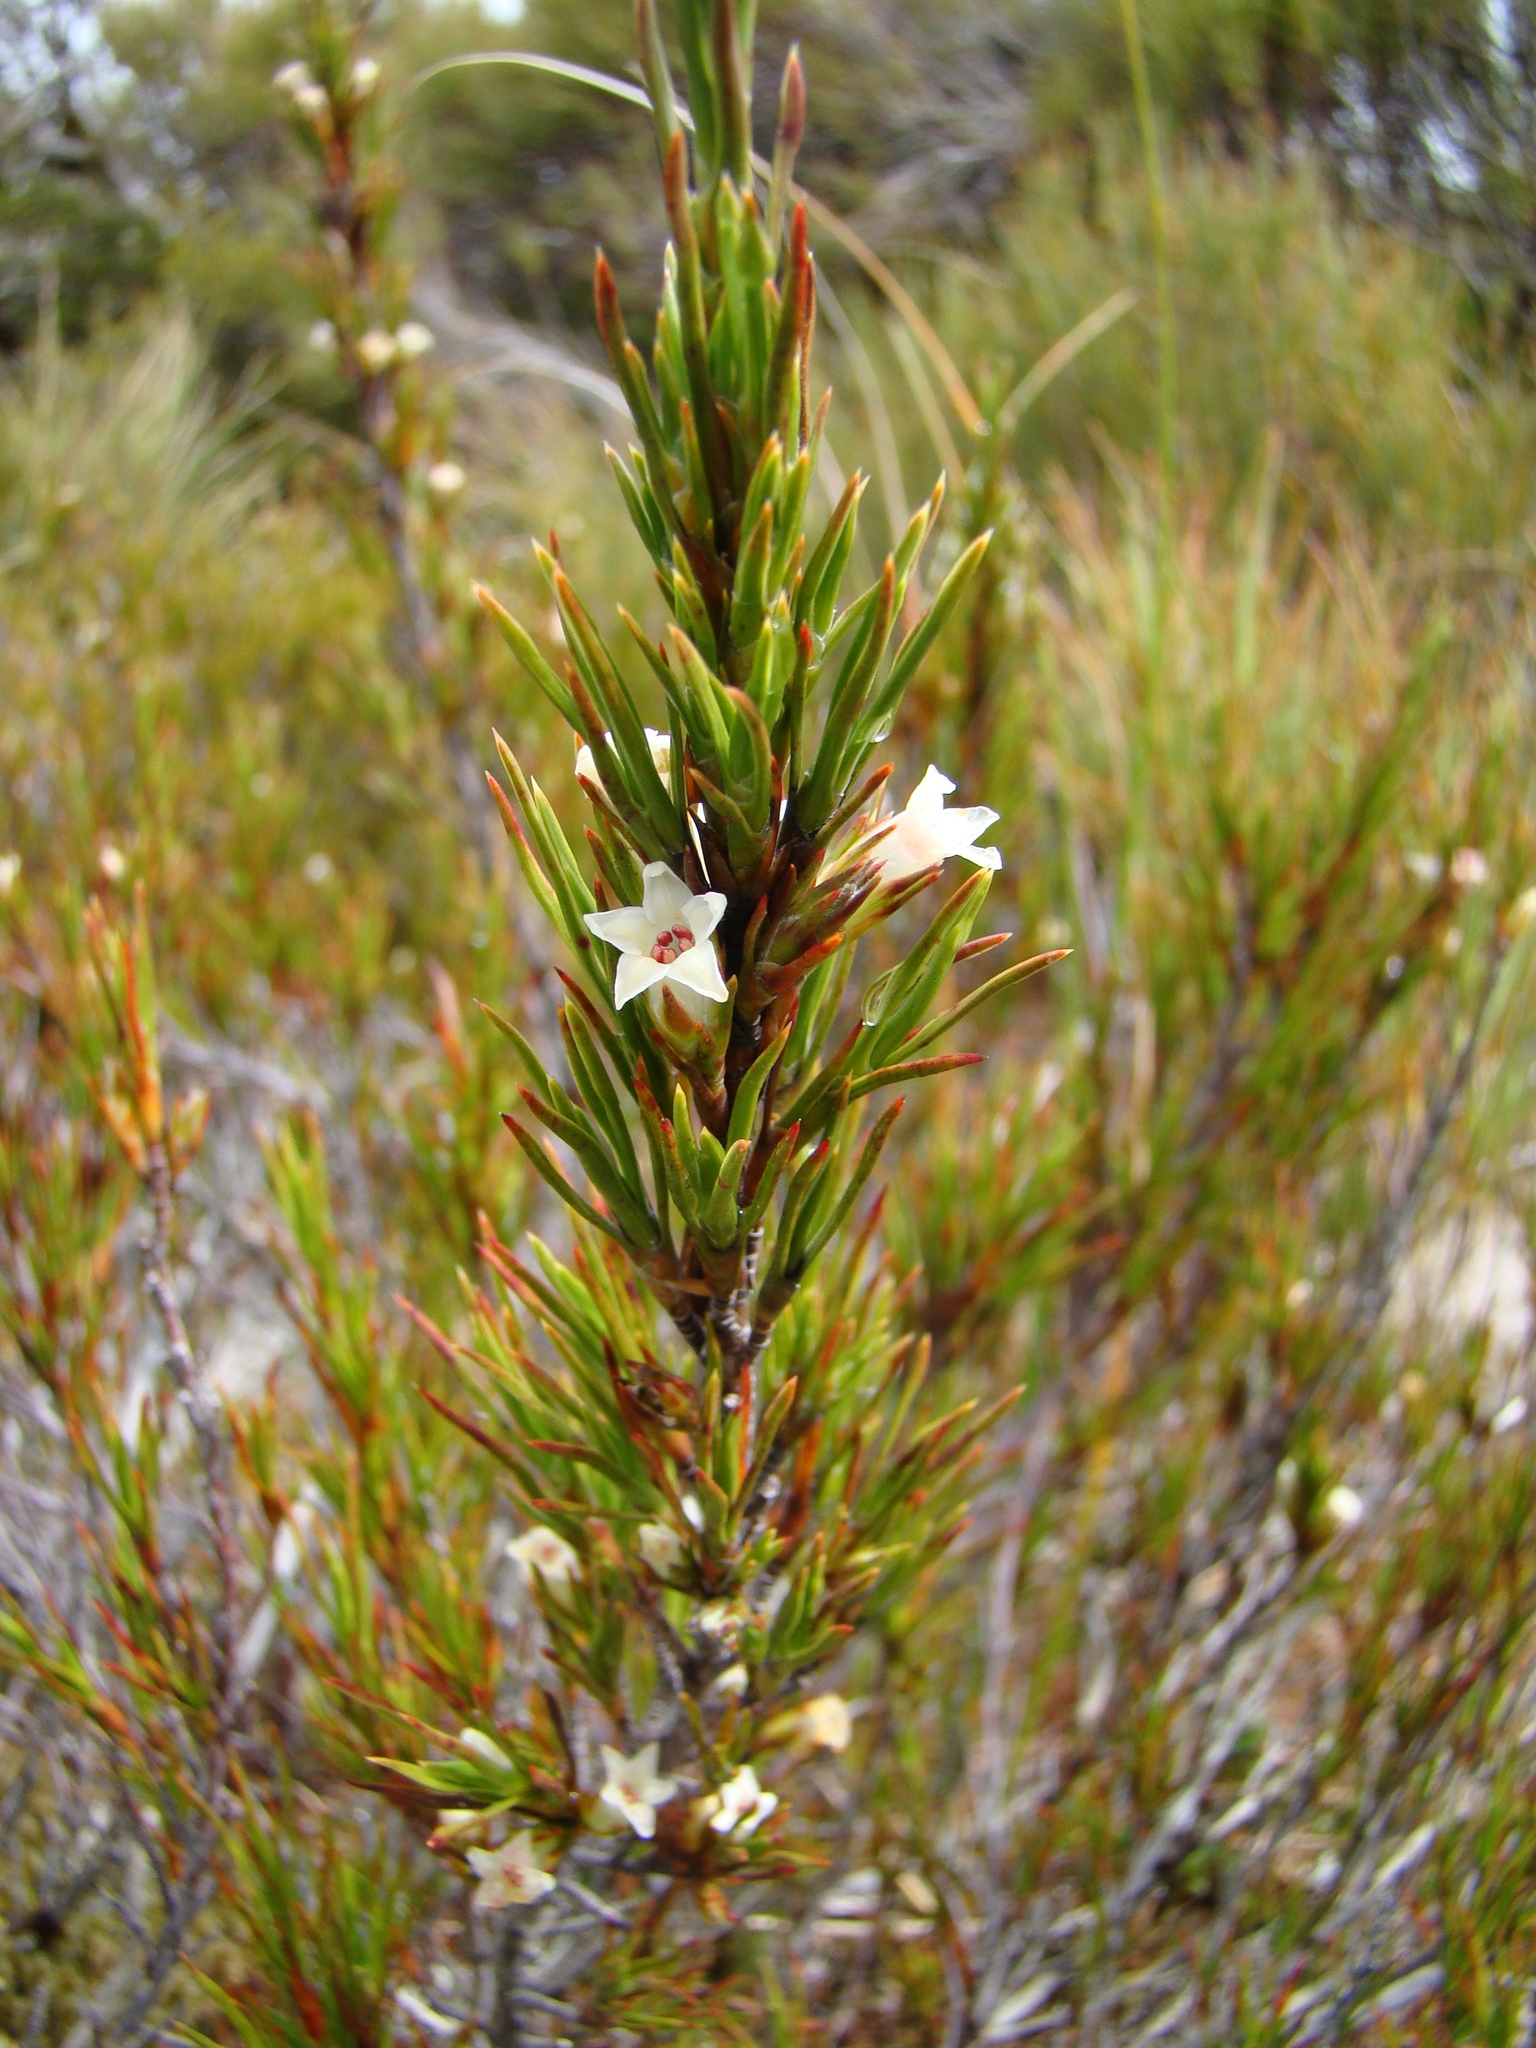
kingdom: Plantae
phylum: Tracheophyta
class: Magnoliopsida
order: Ericales
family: Ericaceae
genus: Dracophyllum
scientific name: Dracophyllum rosmarinifolium
